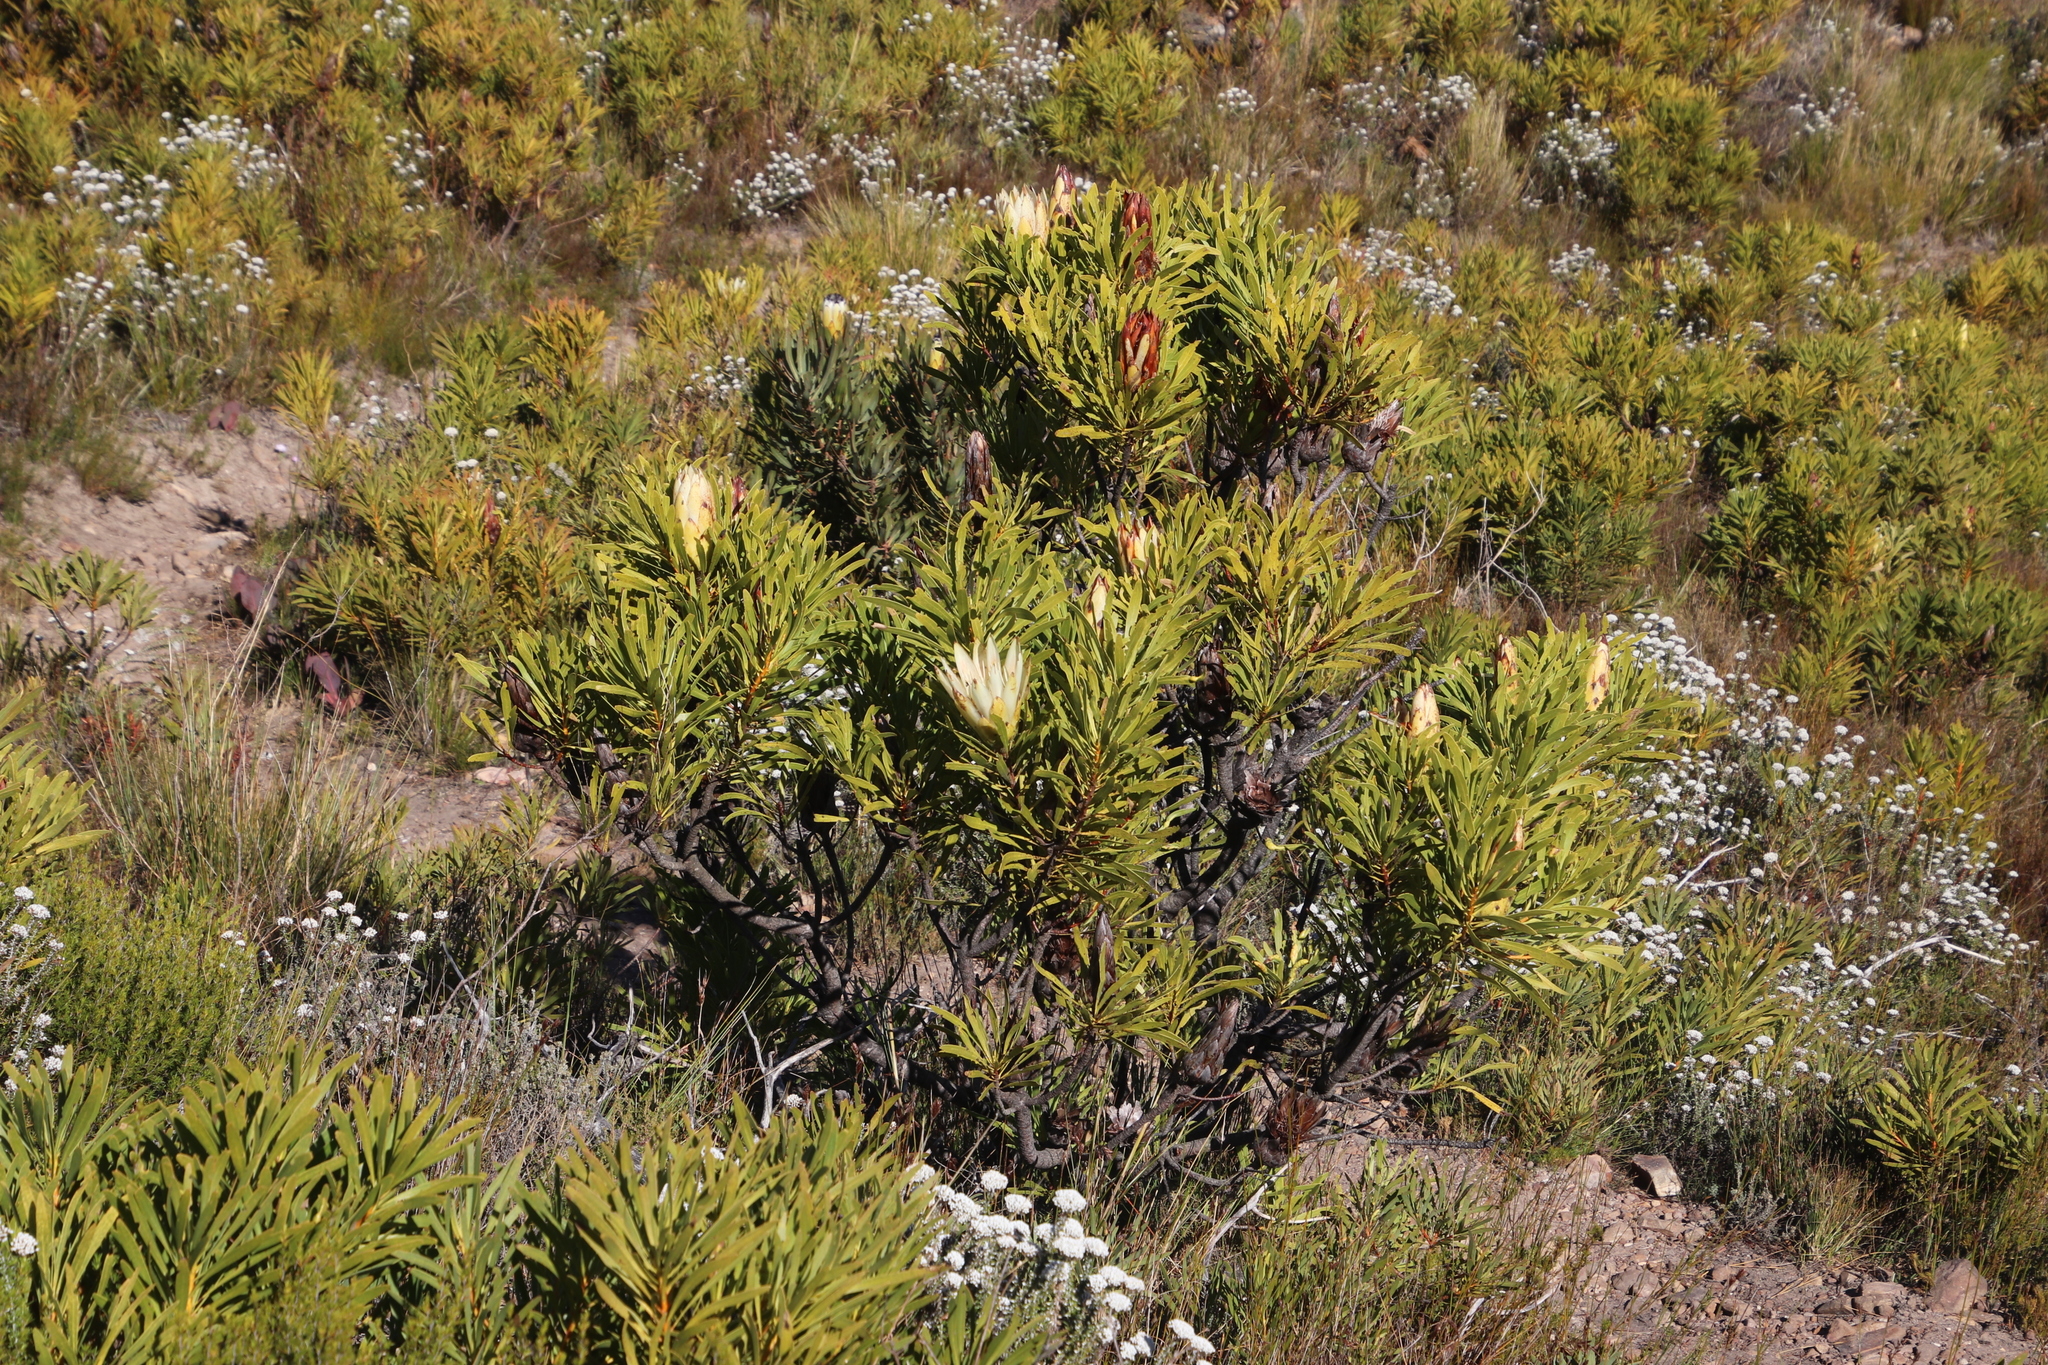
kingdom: Plantae
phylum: Tracheophyta
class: Magnoliopsida
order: Proteales
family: Proteaceae
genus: Protea
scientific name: Protea repens
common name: Sugarbush
